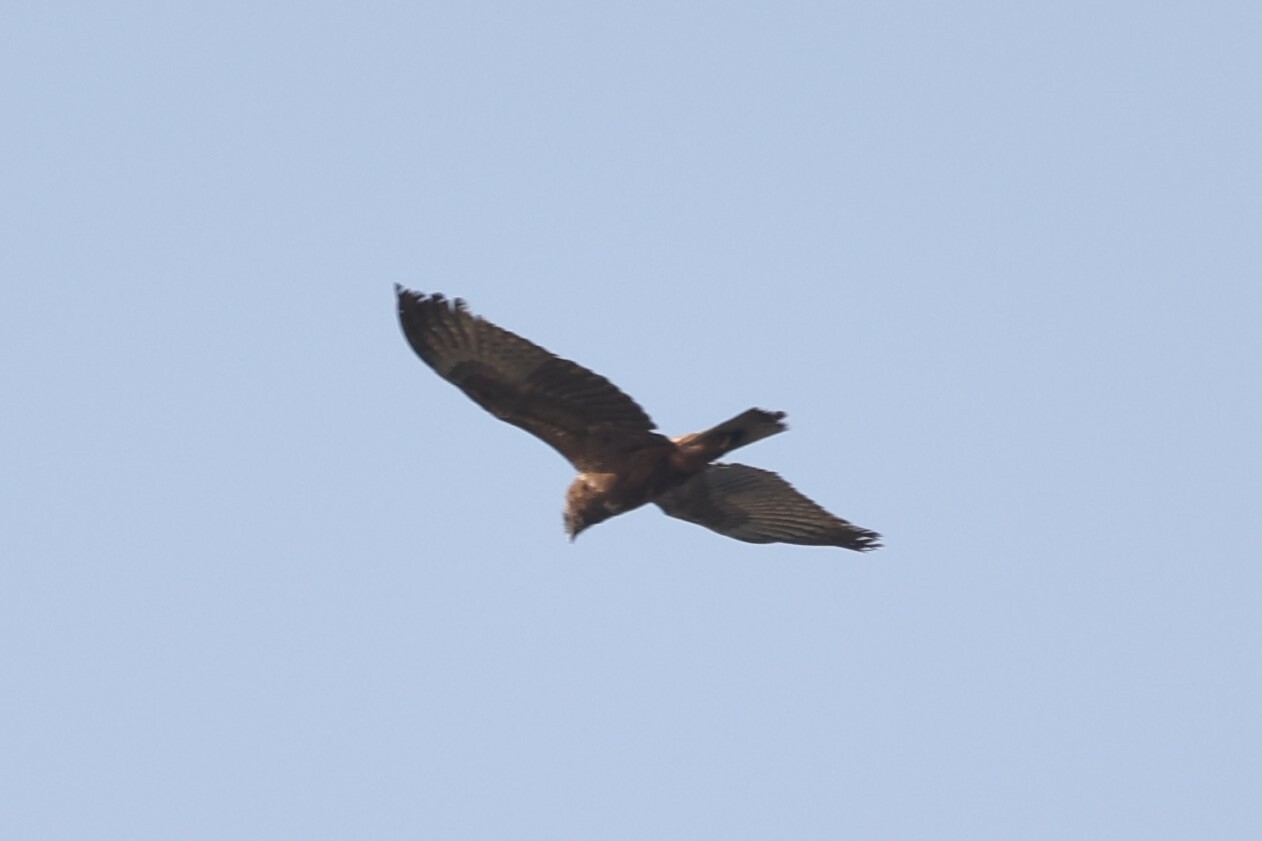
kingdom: Animalia
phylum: Chordata
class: Aves
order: Accipitriformes
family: Accipitridae
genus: Circus
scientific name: Circus ranivorus
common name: African marsh-harrier
